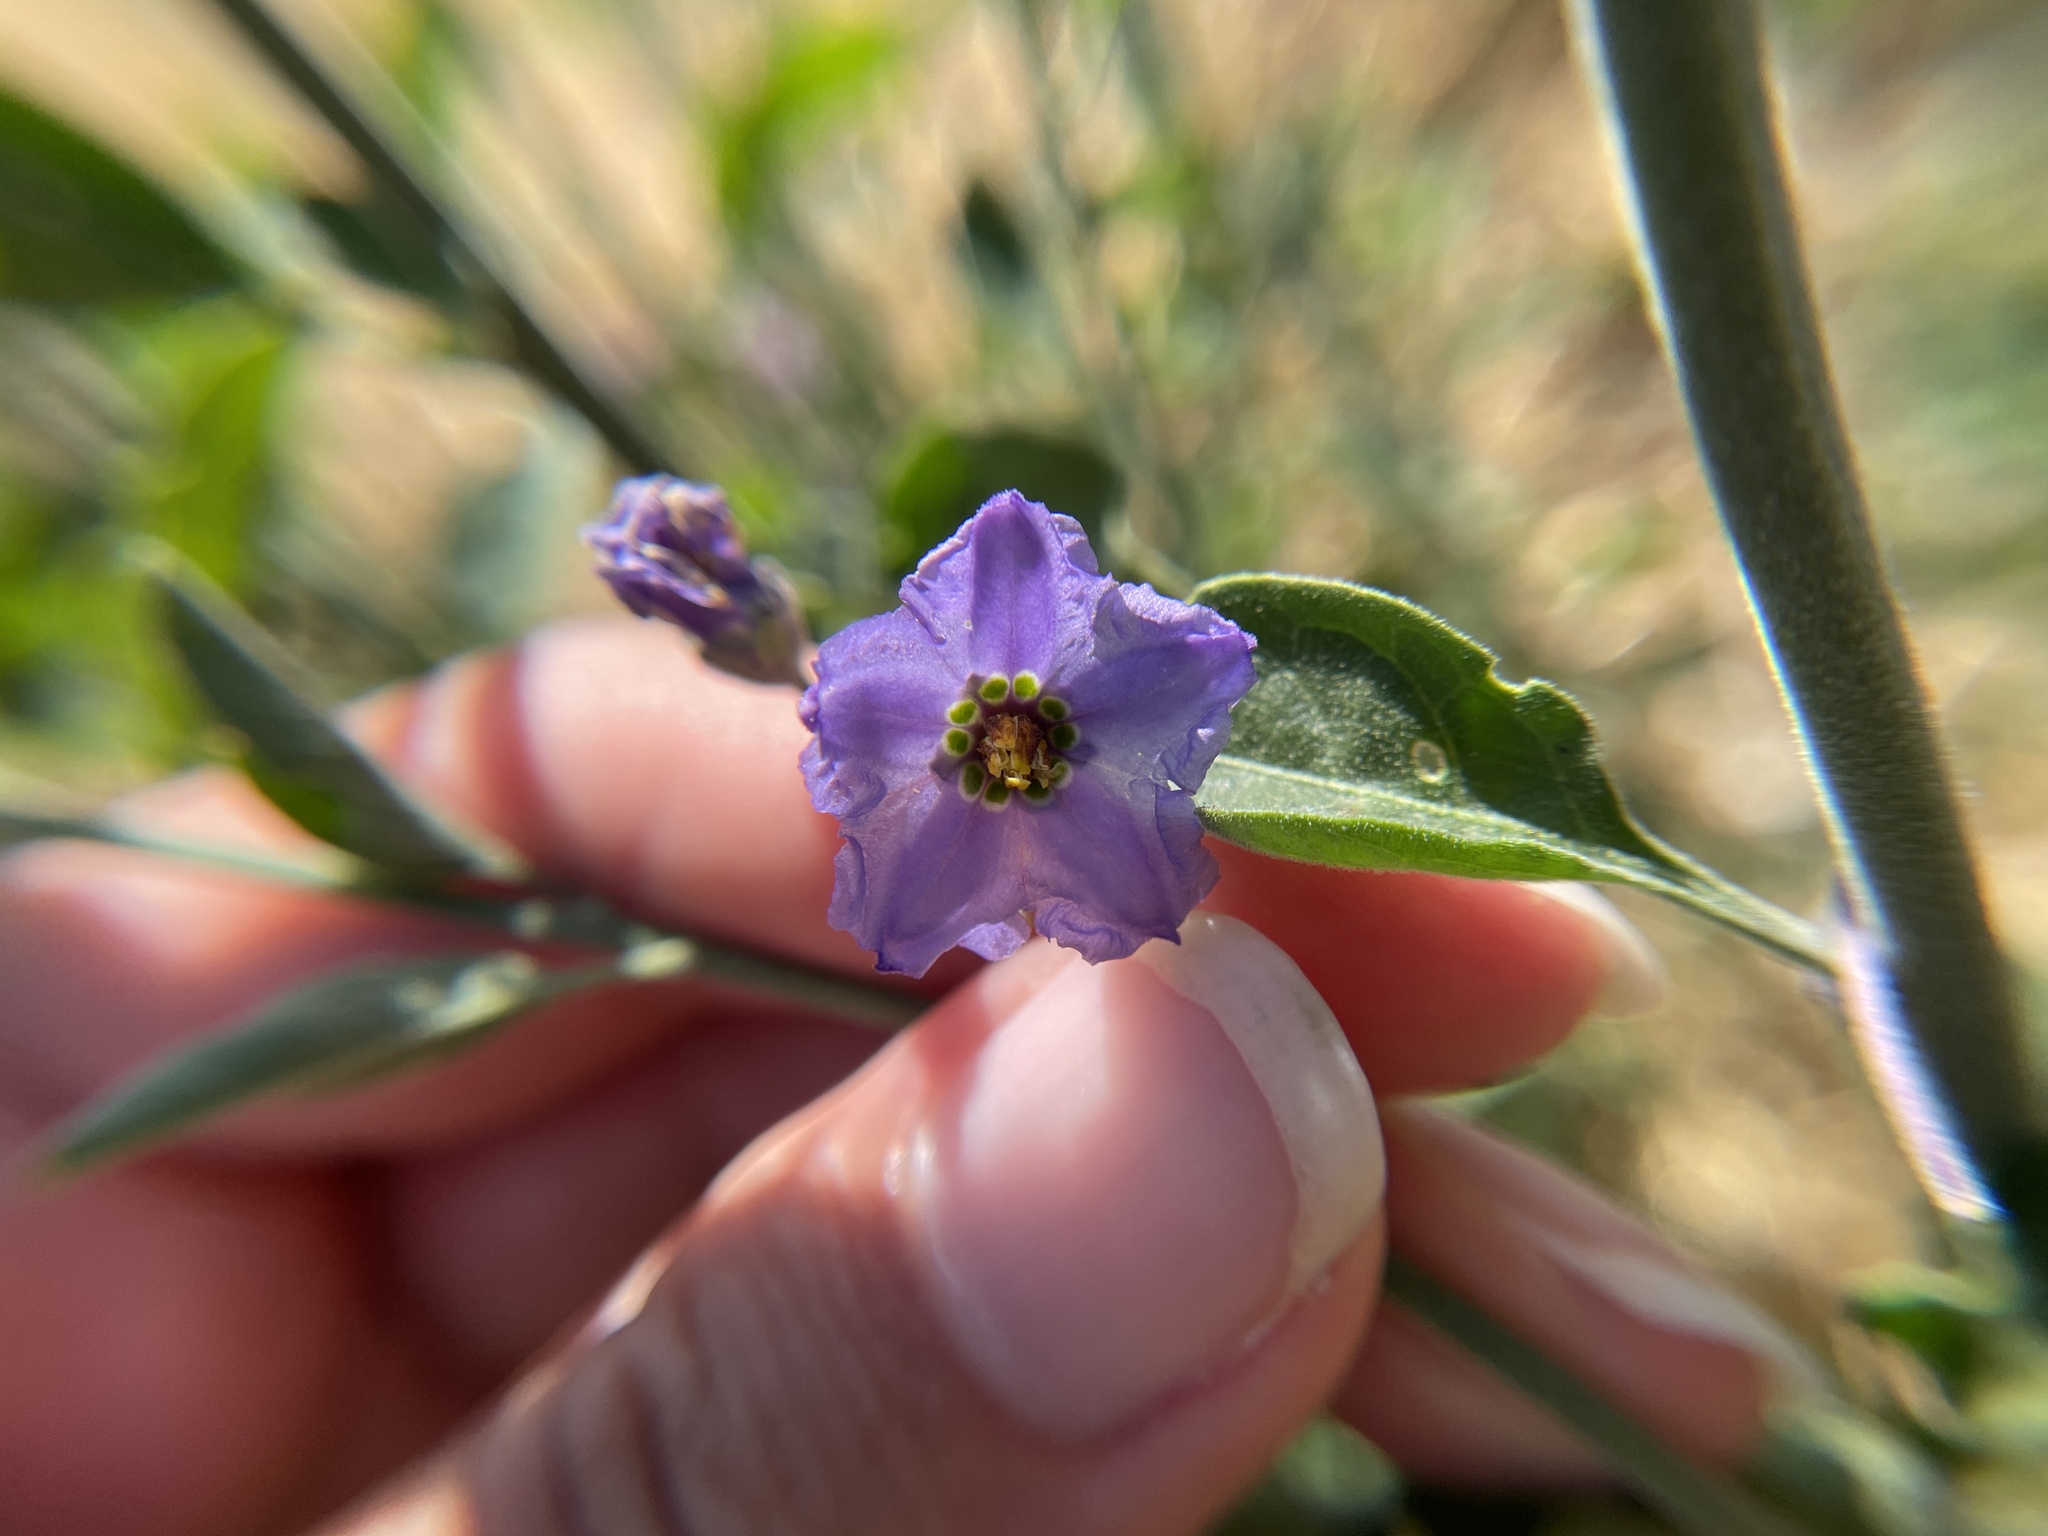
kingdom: Plantae
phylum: Tracheophyta
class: Magnoliopsida
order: Solanales
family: Solanaceae
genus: Solanum
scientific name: Solanum umbelliferum
